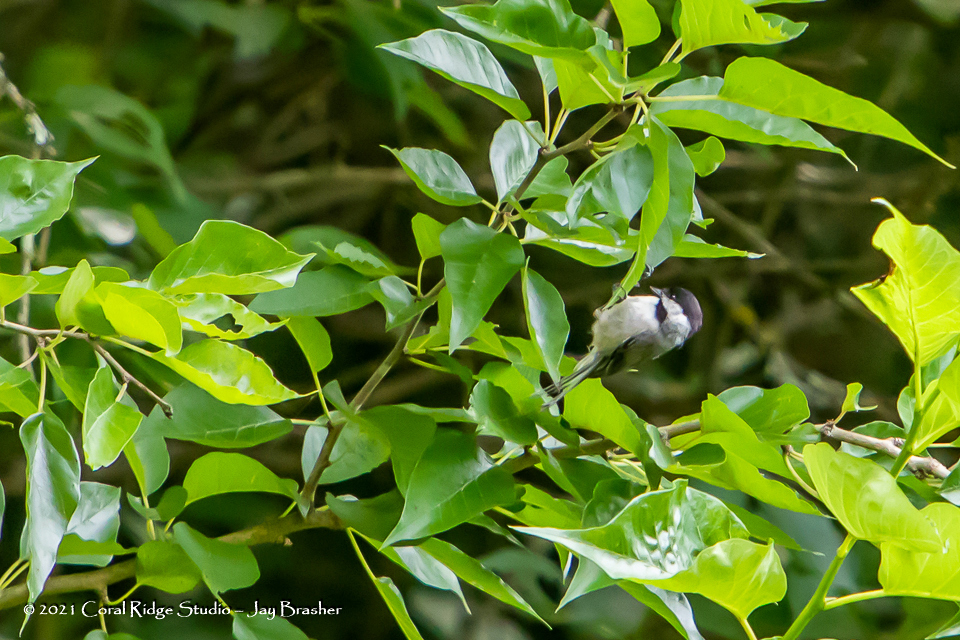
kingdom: Animalia
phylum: Chordata
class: Aves
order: Passeriformes
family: Paridae
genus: Poecile
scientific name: Poecile carolinensis
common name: Carolina chickadee
